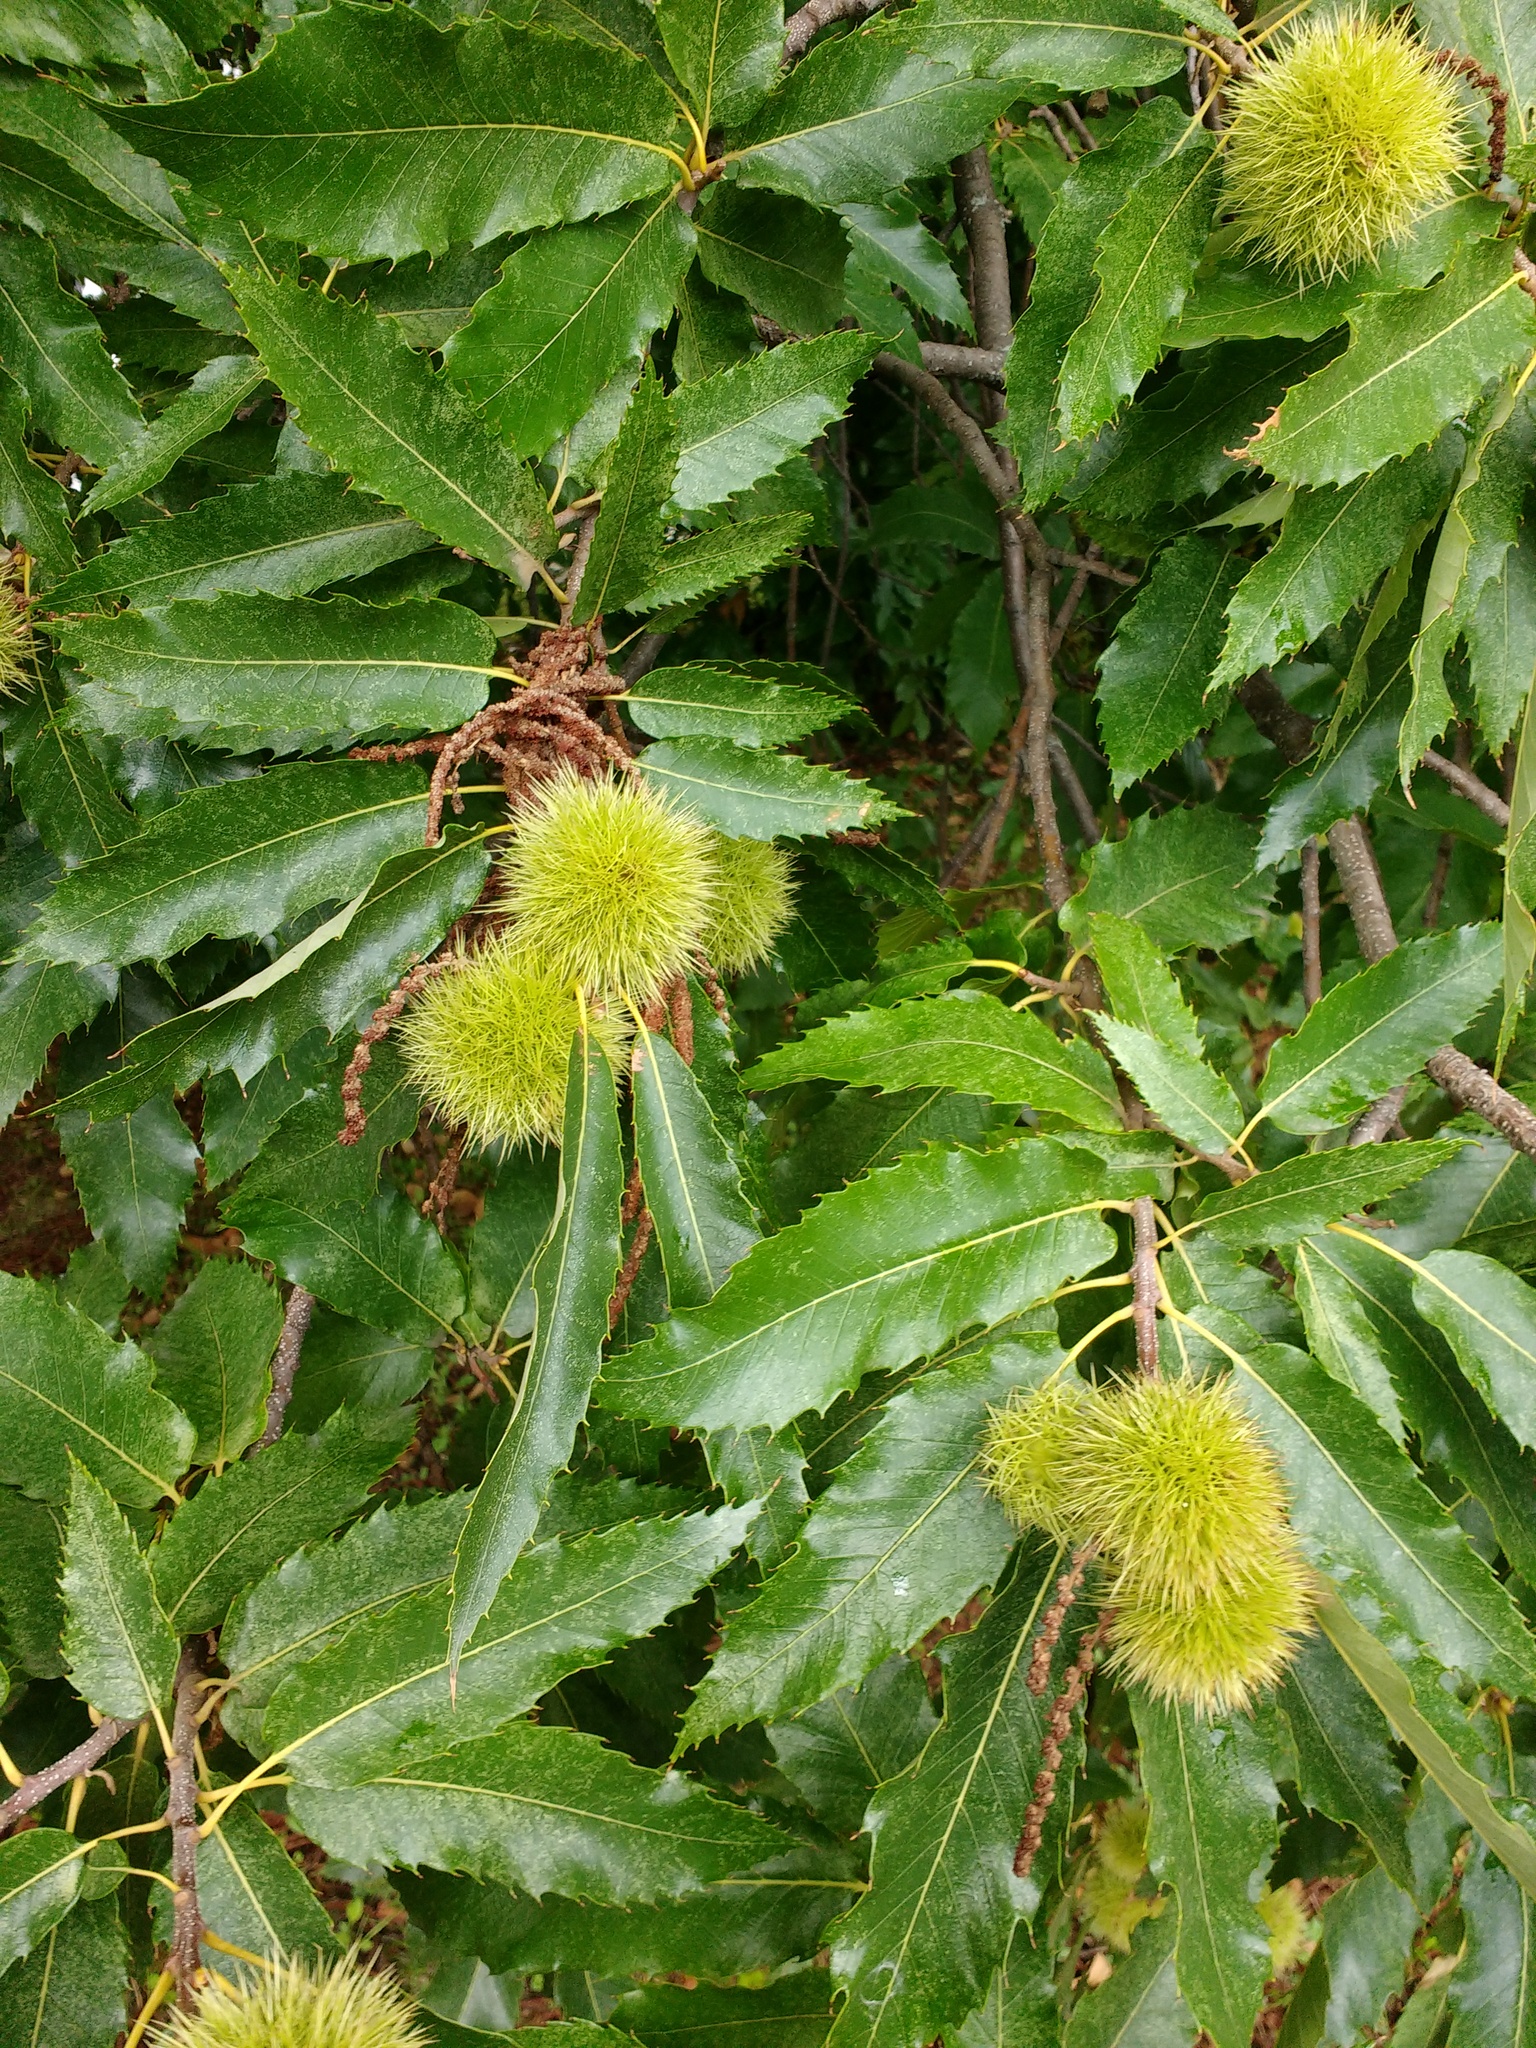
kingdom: Plantae
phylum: Tracheophyta
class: Magnoliopsida
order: Fagales
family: Fagaceae
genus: Castanea
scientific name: Castanea sativa
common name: Sweet chestnut
